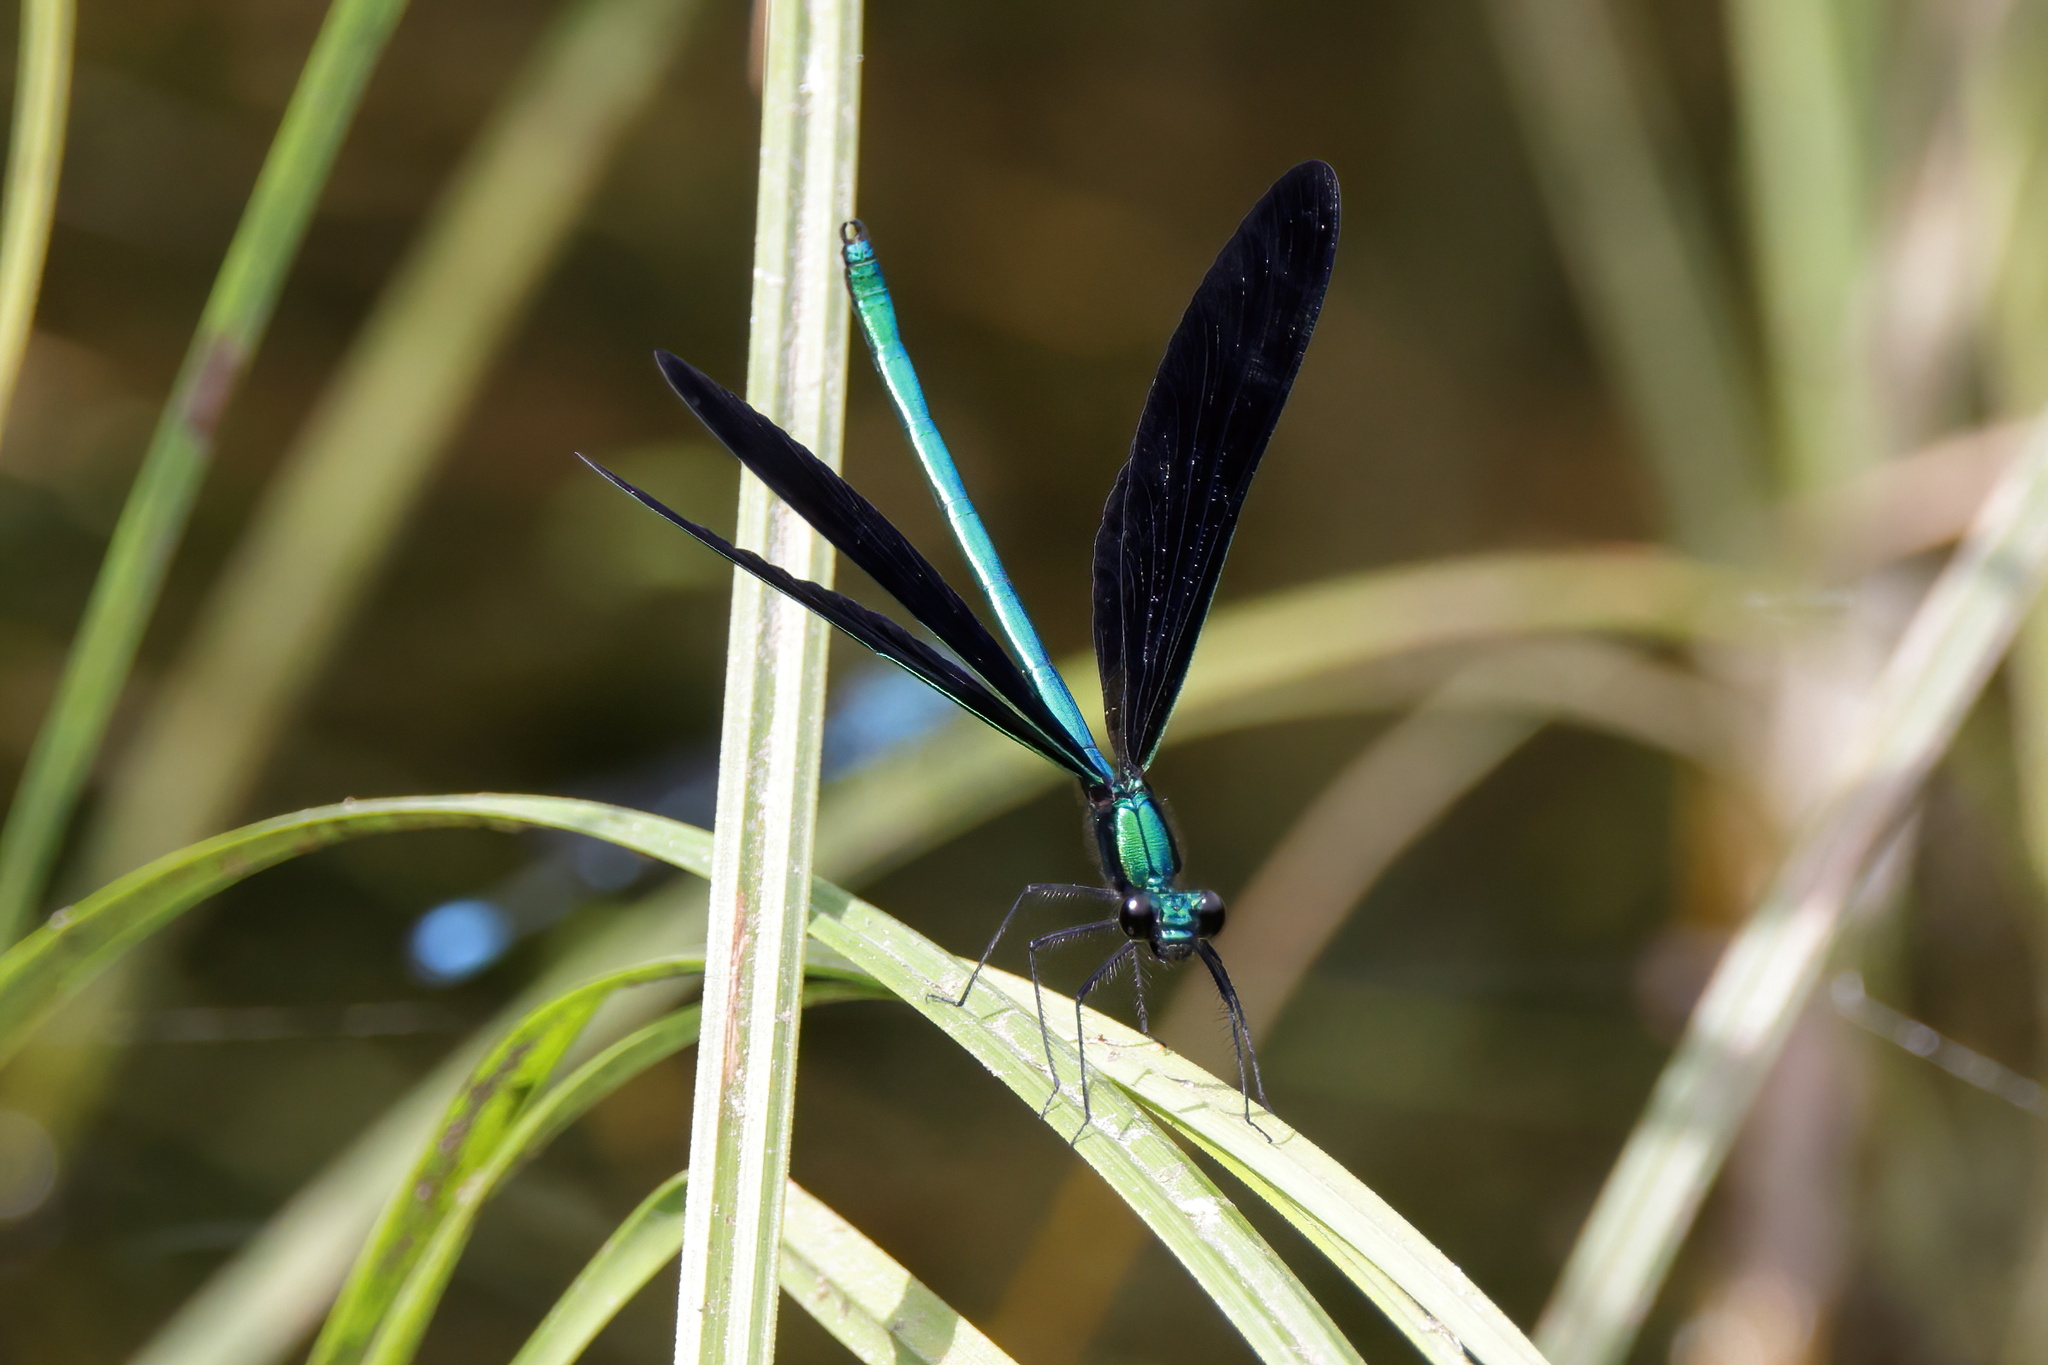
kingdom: Animalia
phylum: Arthropoda
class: Insecta
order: Odonata
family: Calopterygidae
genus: Calopteryx
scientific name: Calopteryx maculata
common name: Ebony jewelwing
